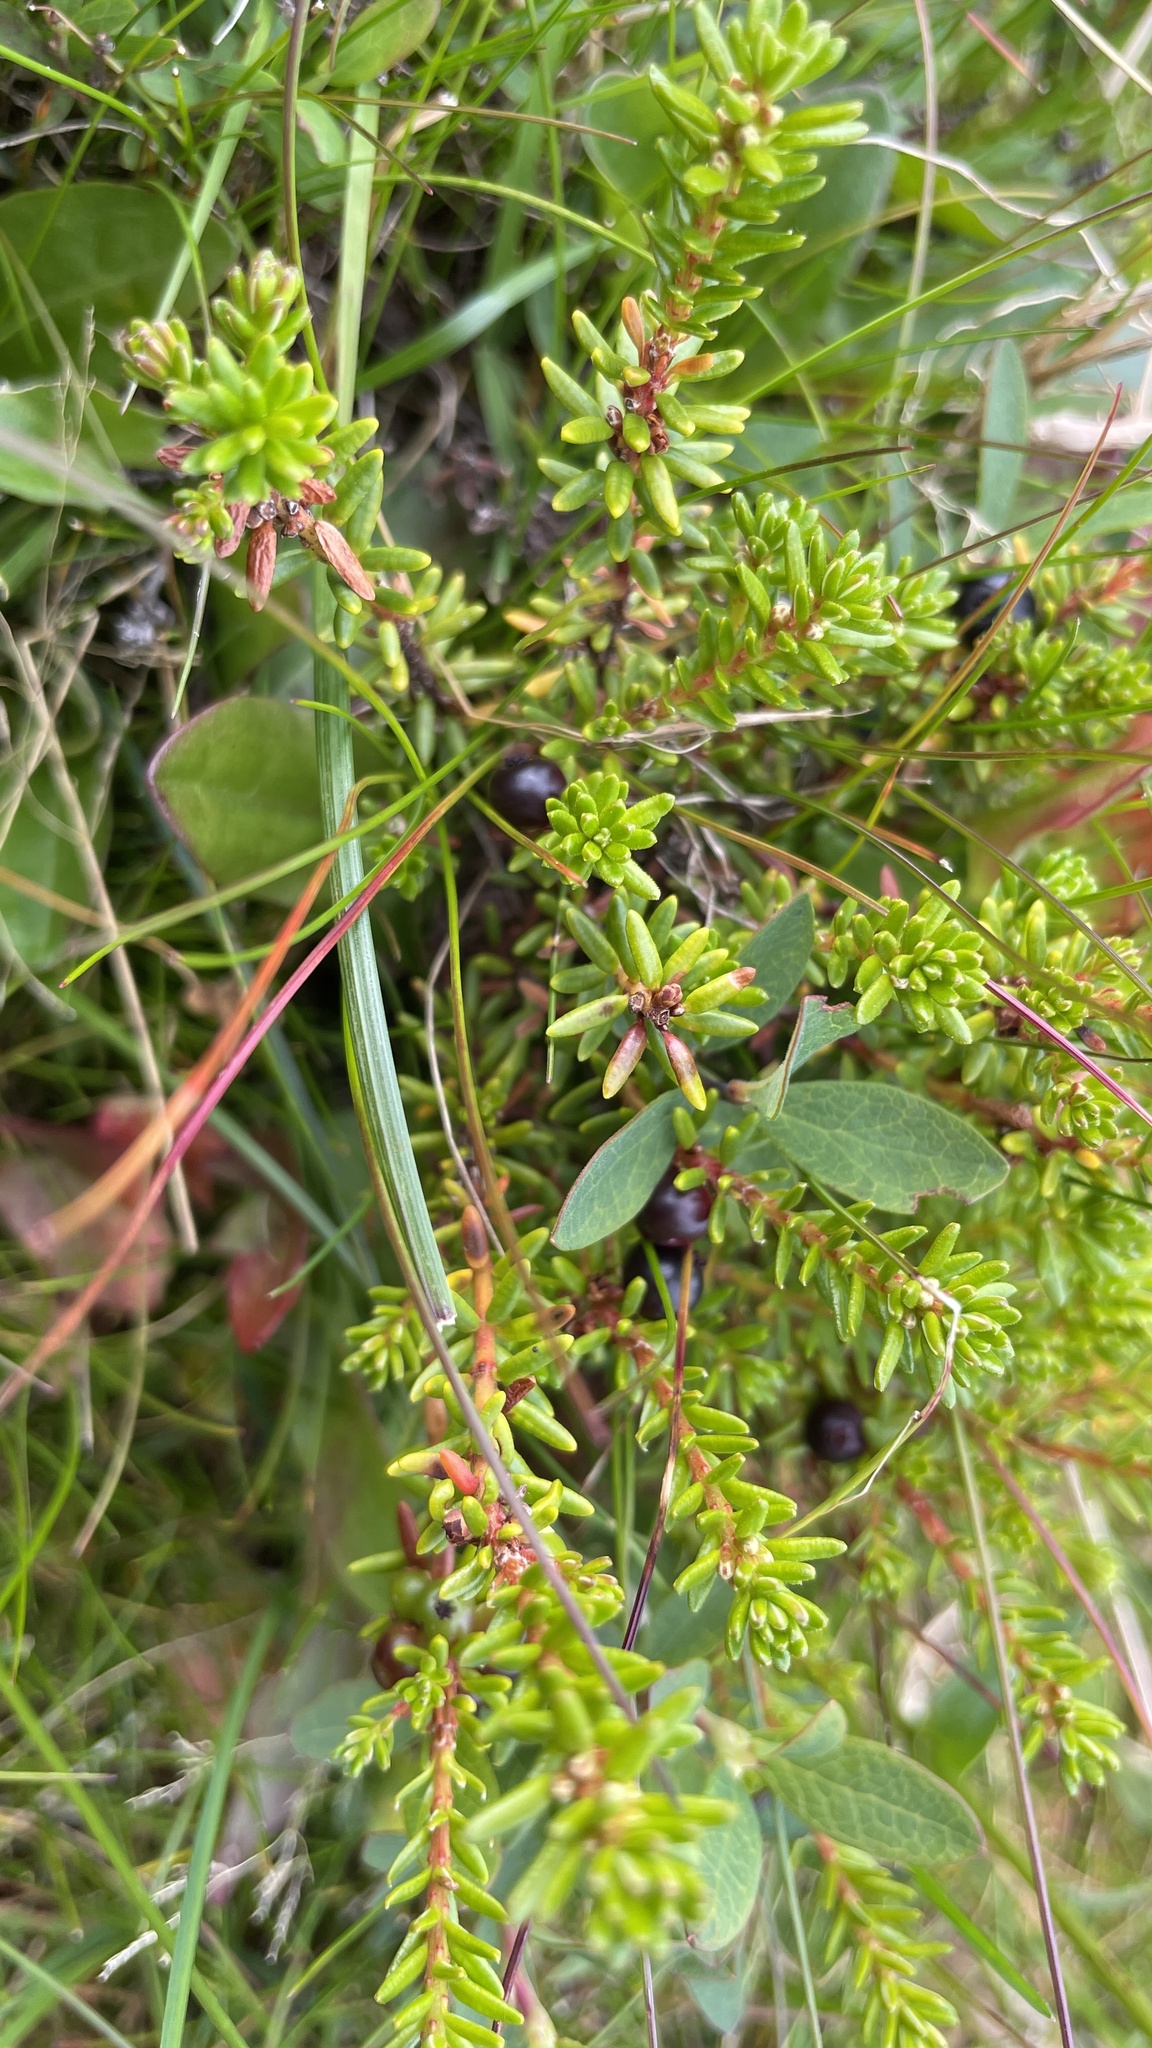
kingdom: Plantae
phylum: Tracheophyta
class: Magnoliopsida
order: Ericales
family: Ericaceae
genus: Empetrum
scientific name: Empetrum nigrum
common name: Black crowberry
